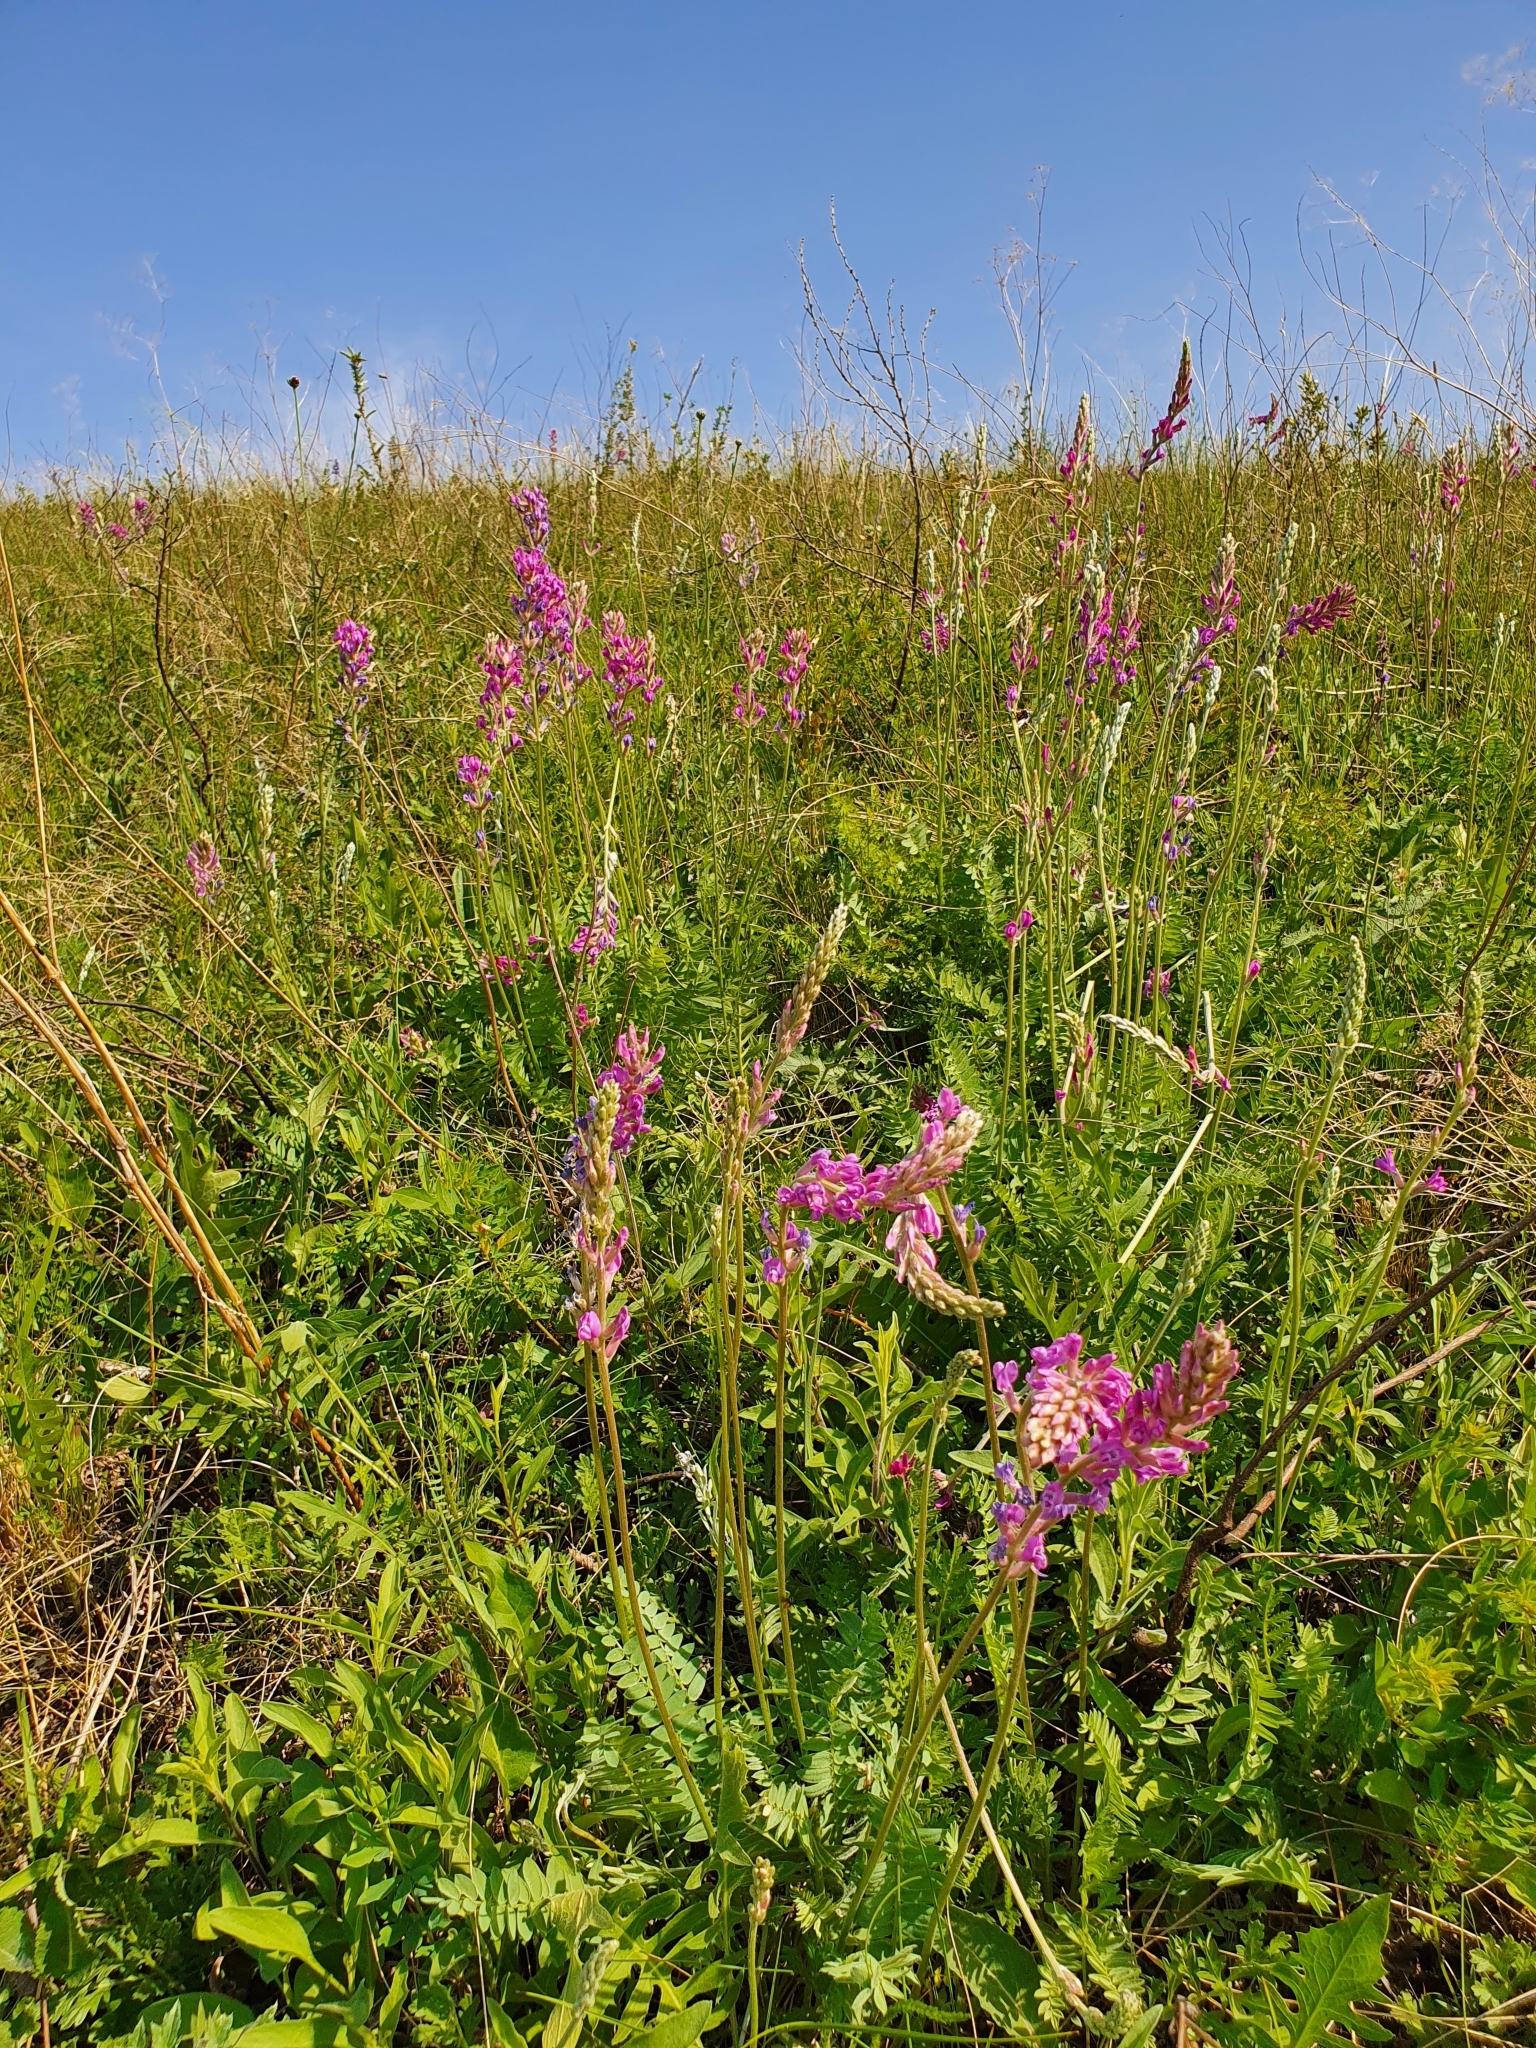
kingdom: Plantae
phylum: Tracheophyta
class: Magnoliopsida
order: Fabales
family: Fabaceae
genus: Oxytropis
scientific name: Oxytropis knjazevii
